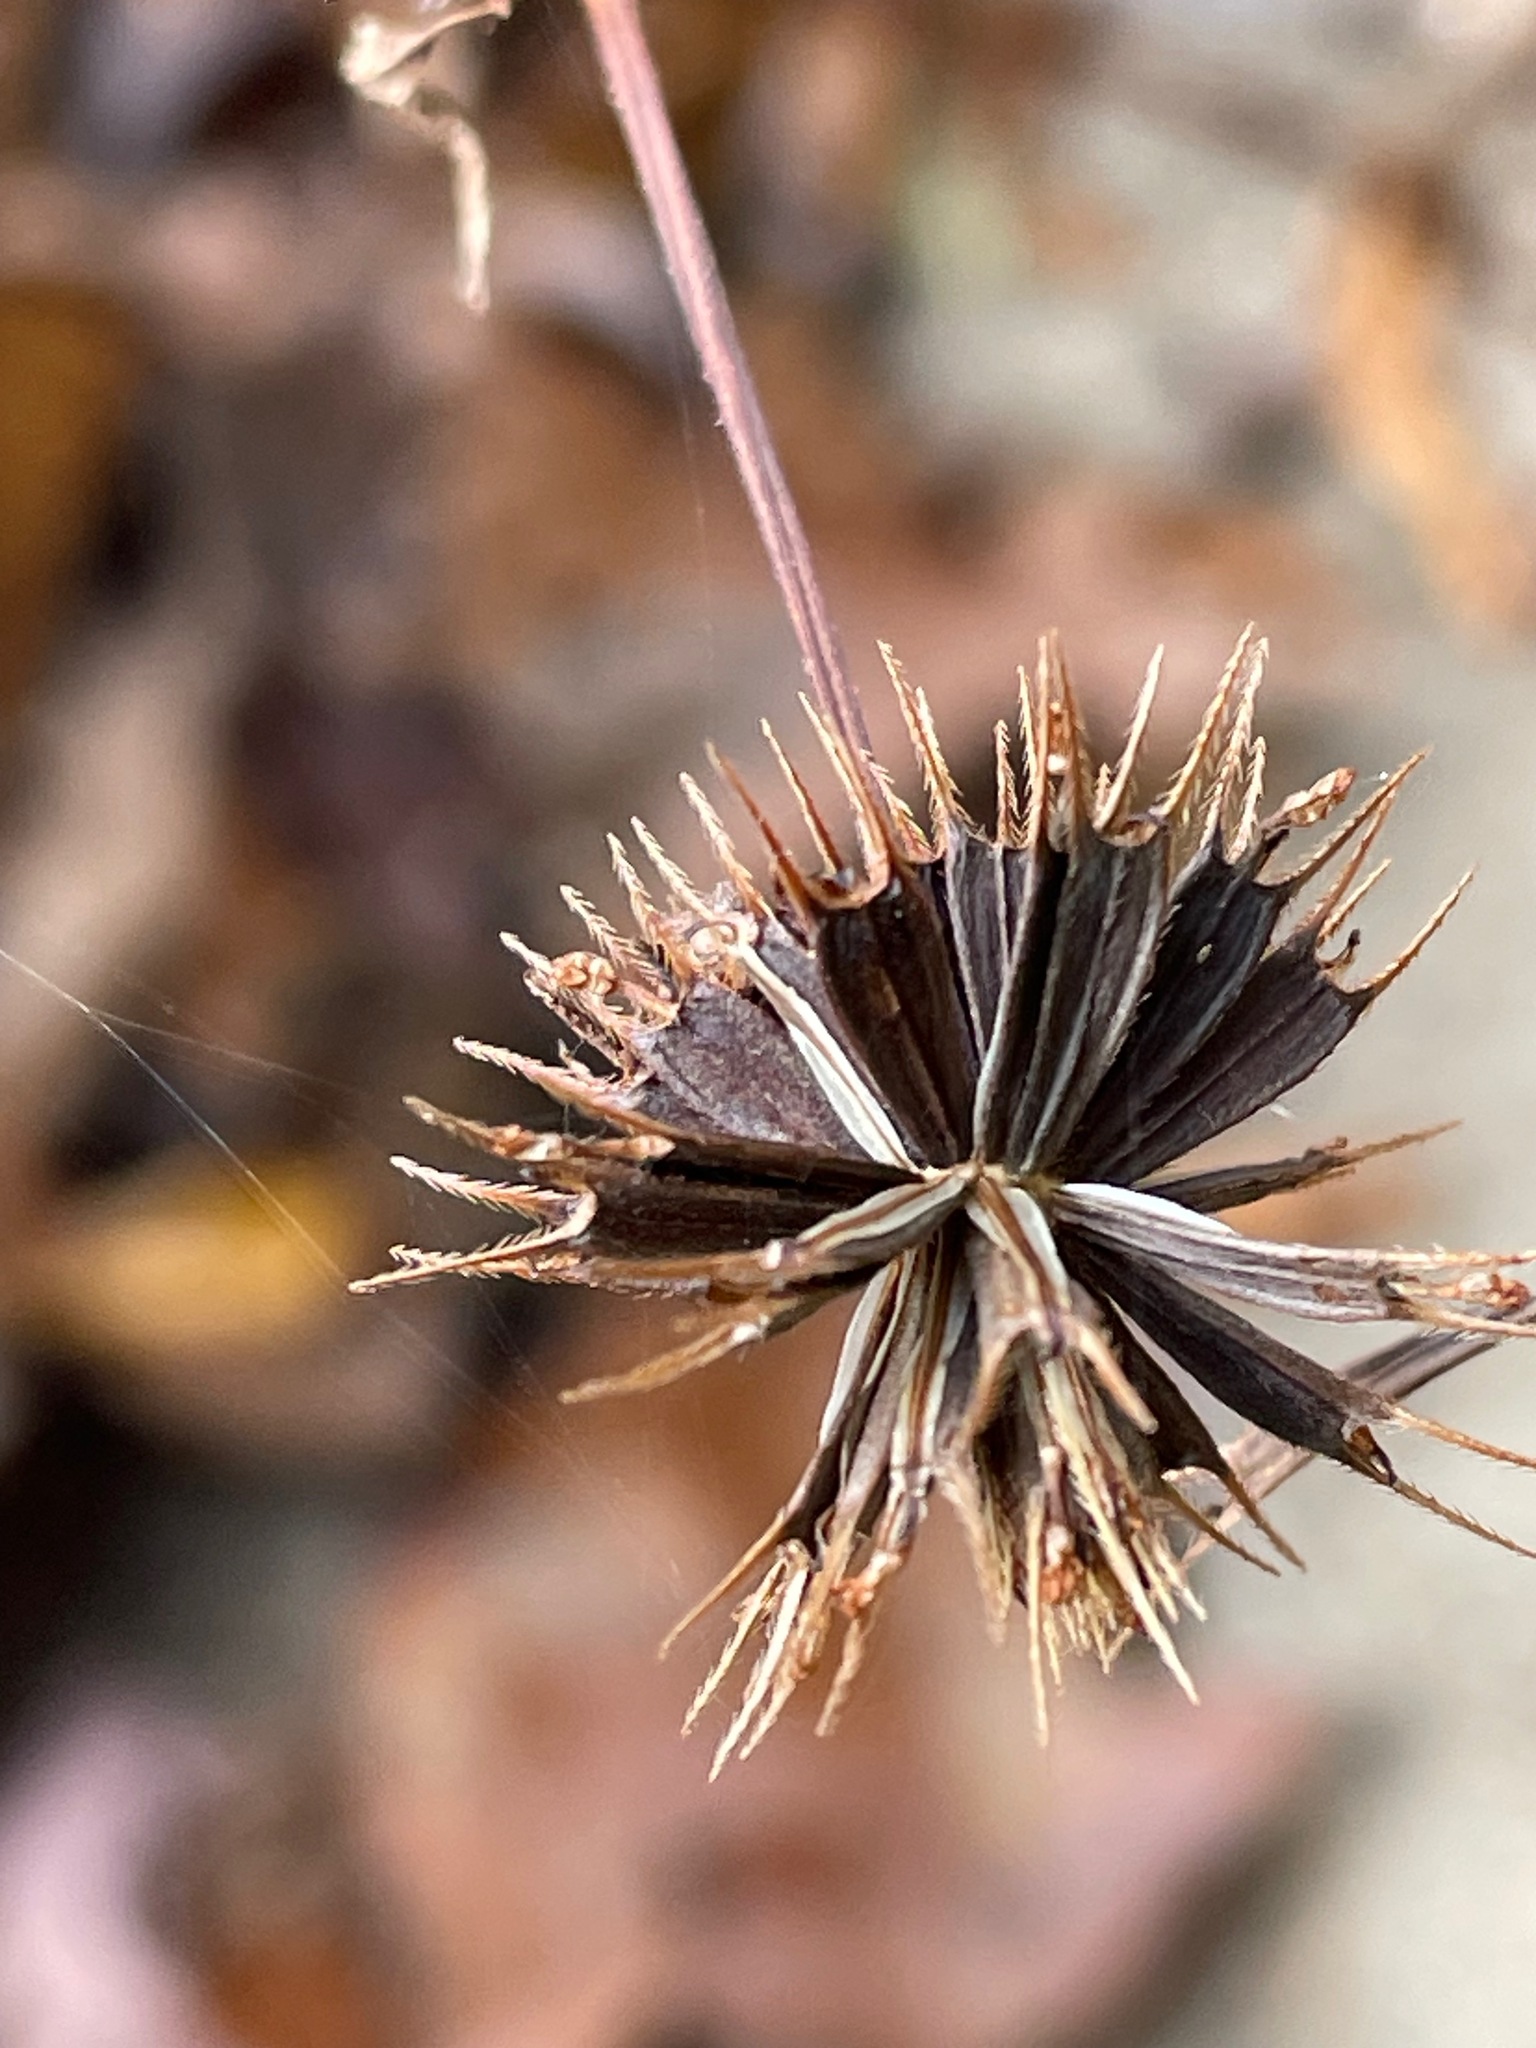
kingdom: Plantae
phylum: Tracheophyta
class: Magnoliopsida
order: Asterales
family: Asteraceae
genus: Bidens
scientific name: Bidens frondosa
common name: Beggarticks
